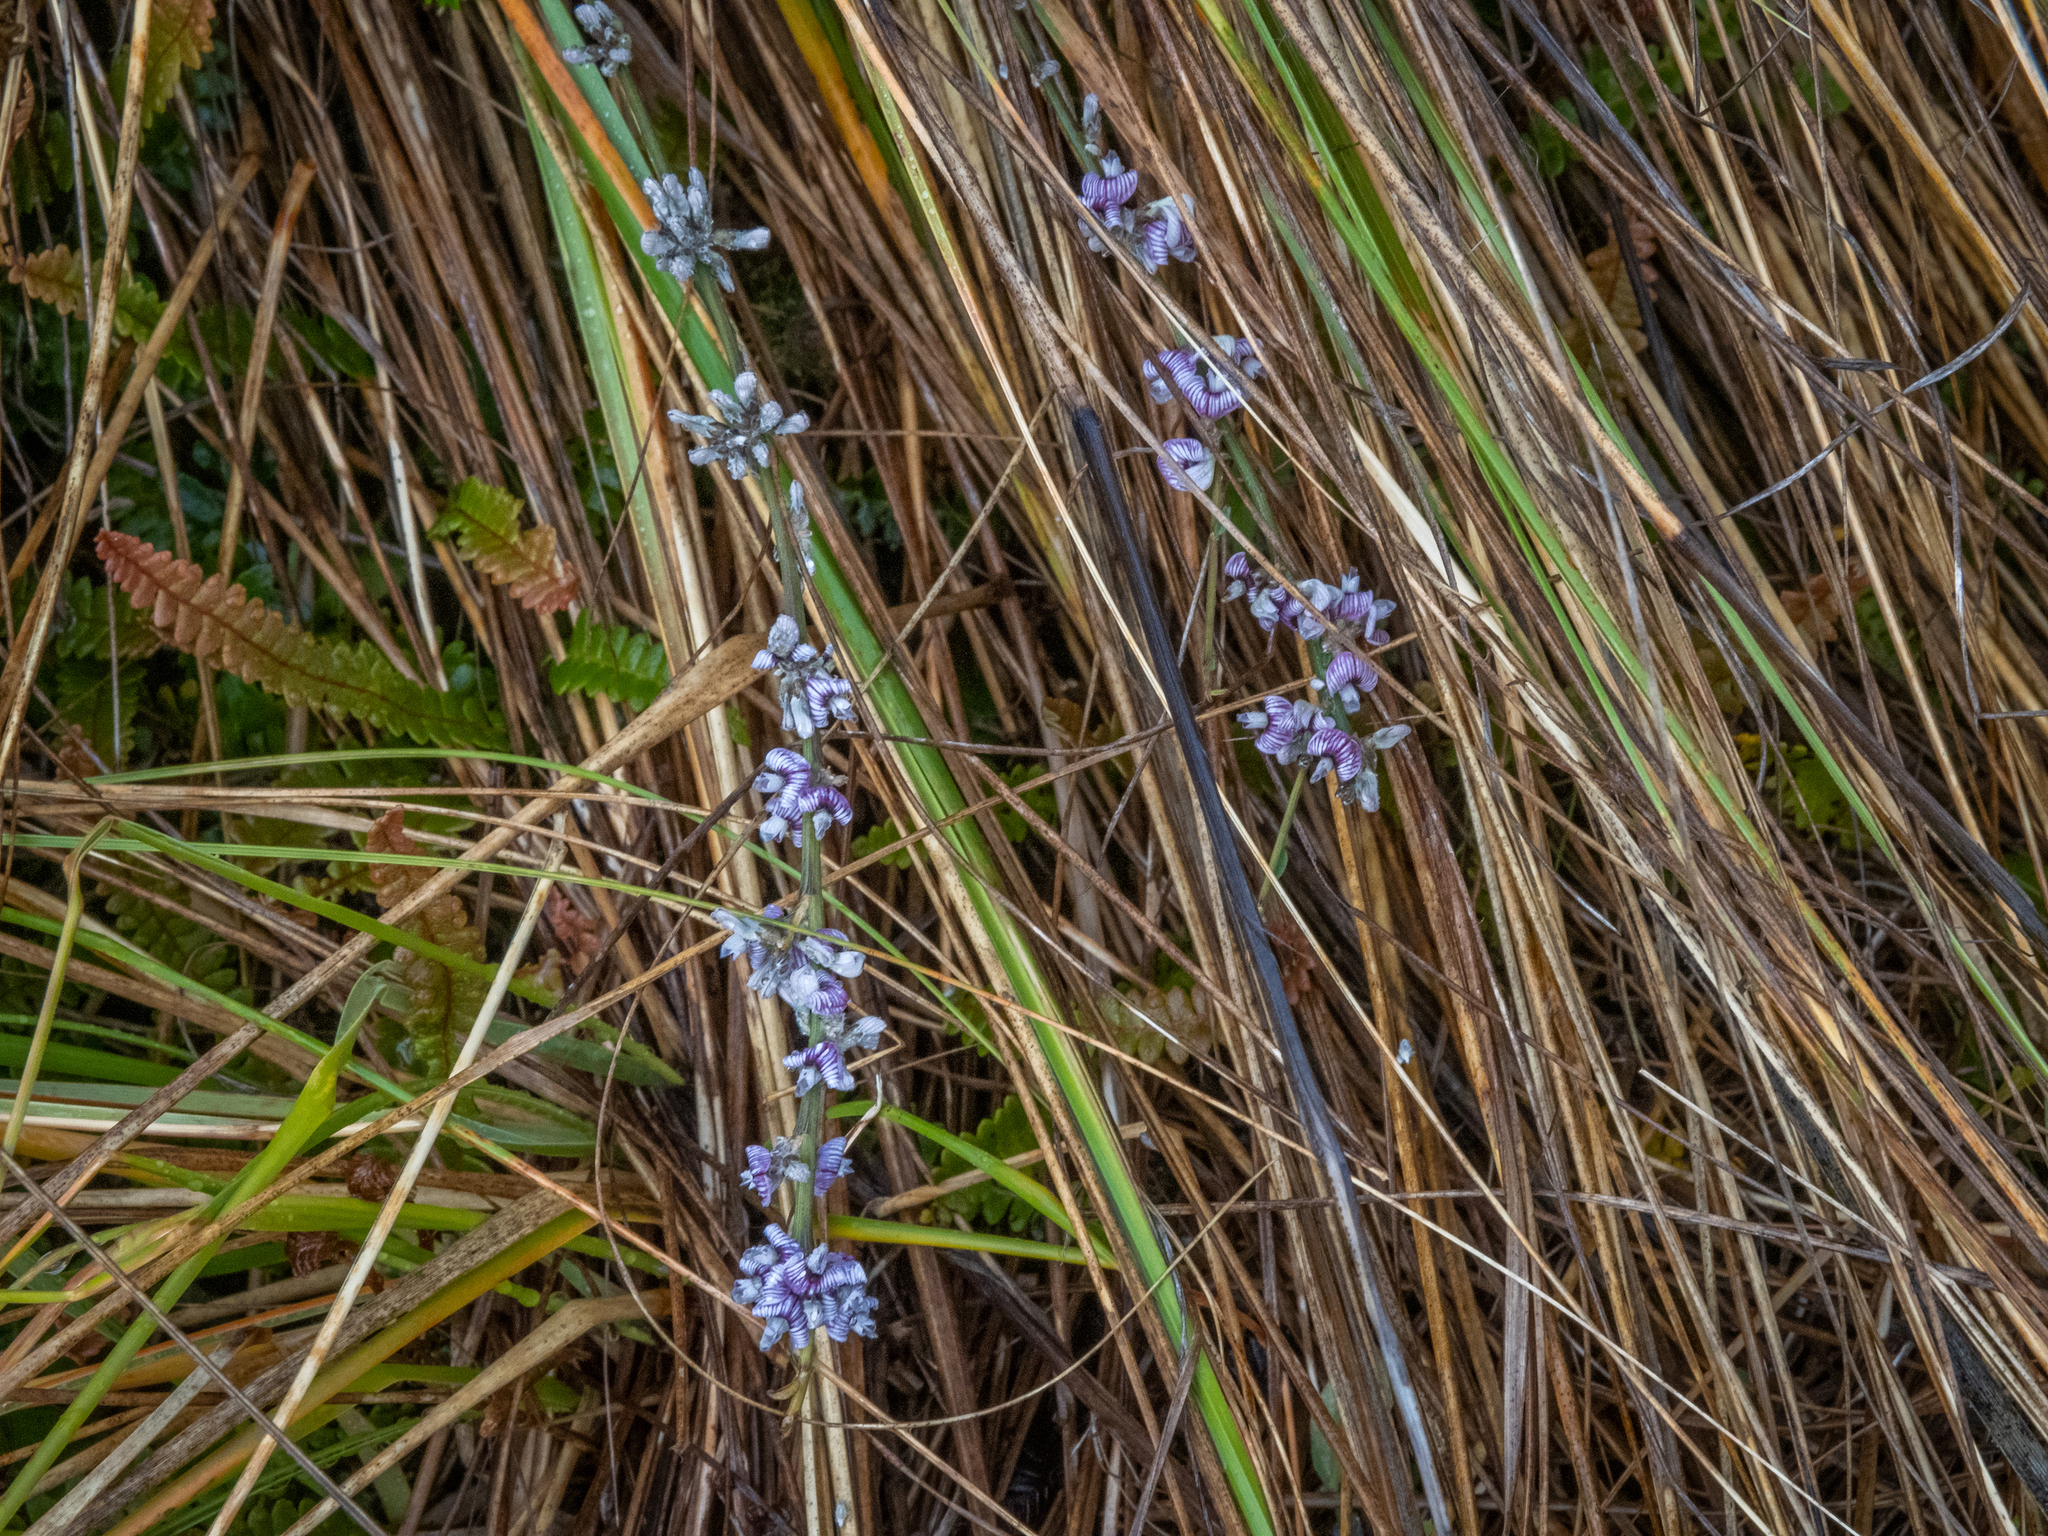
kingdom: Plantae
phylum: Tracheophyta
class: Magnoliopsida
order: Fabales
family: Fabaceae
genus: Carmichaelia
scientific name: Carmichaelia crassicaulis
